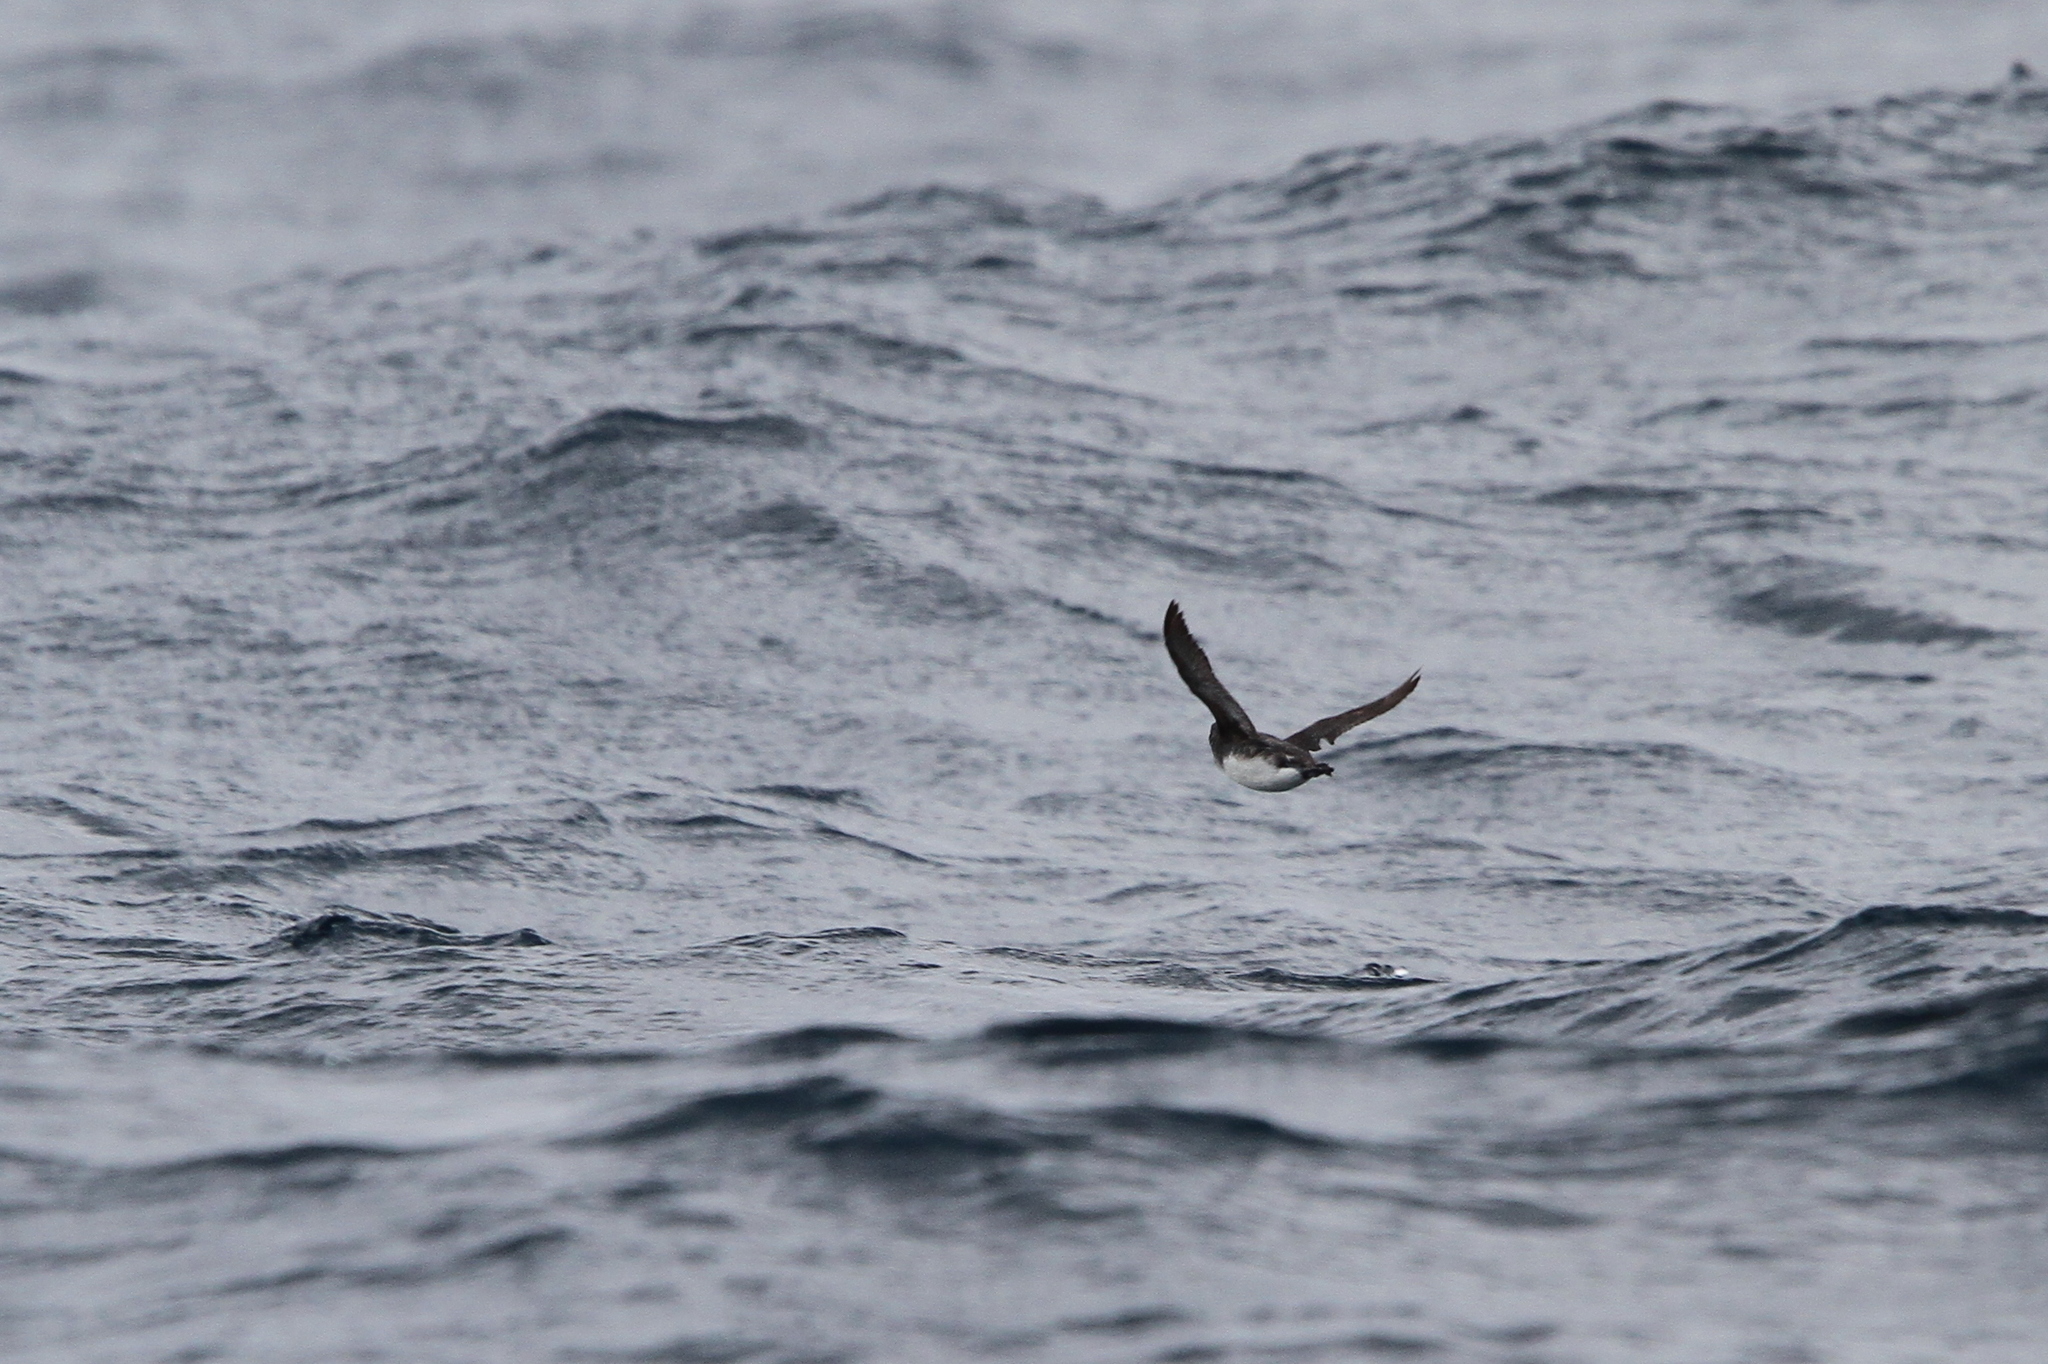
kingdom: Animalia
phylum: Chordata
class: Aves
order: Charadriiformes
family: Alcidae
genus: Ptychoramphus
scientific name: Ptychoramphus aleuticus
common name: Cassin's auklet
